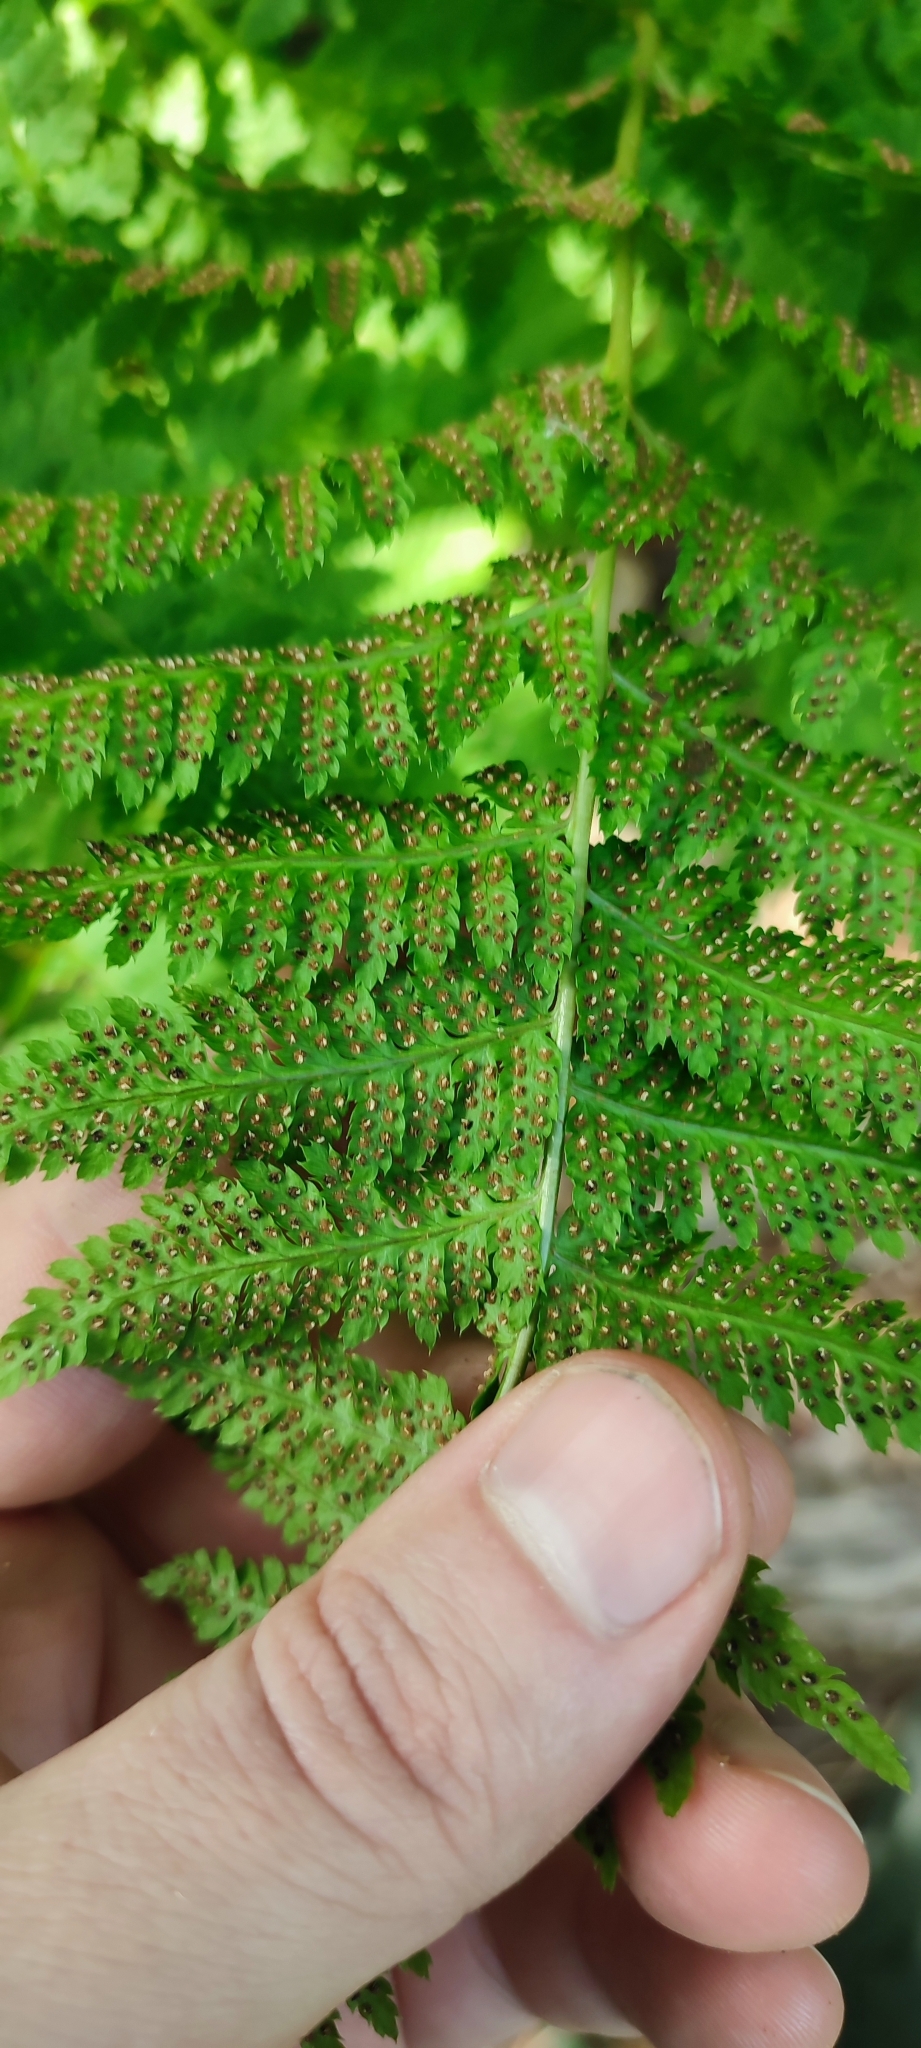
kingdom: Plantae
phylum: Tracheophyta
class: Polypodiopsida
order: Polypodiales
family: Dryopteridaceae
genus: Dryopteris
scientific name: Dryopteris carthusiana
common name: Narrow buckler-fern
